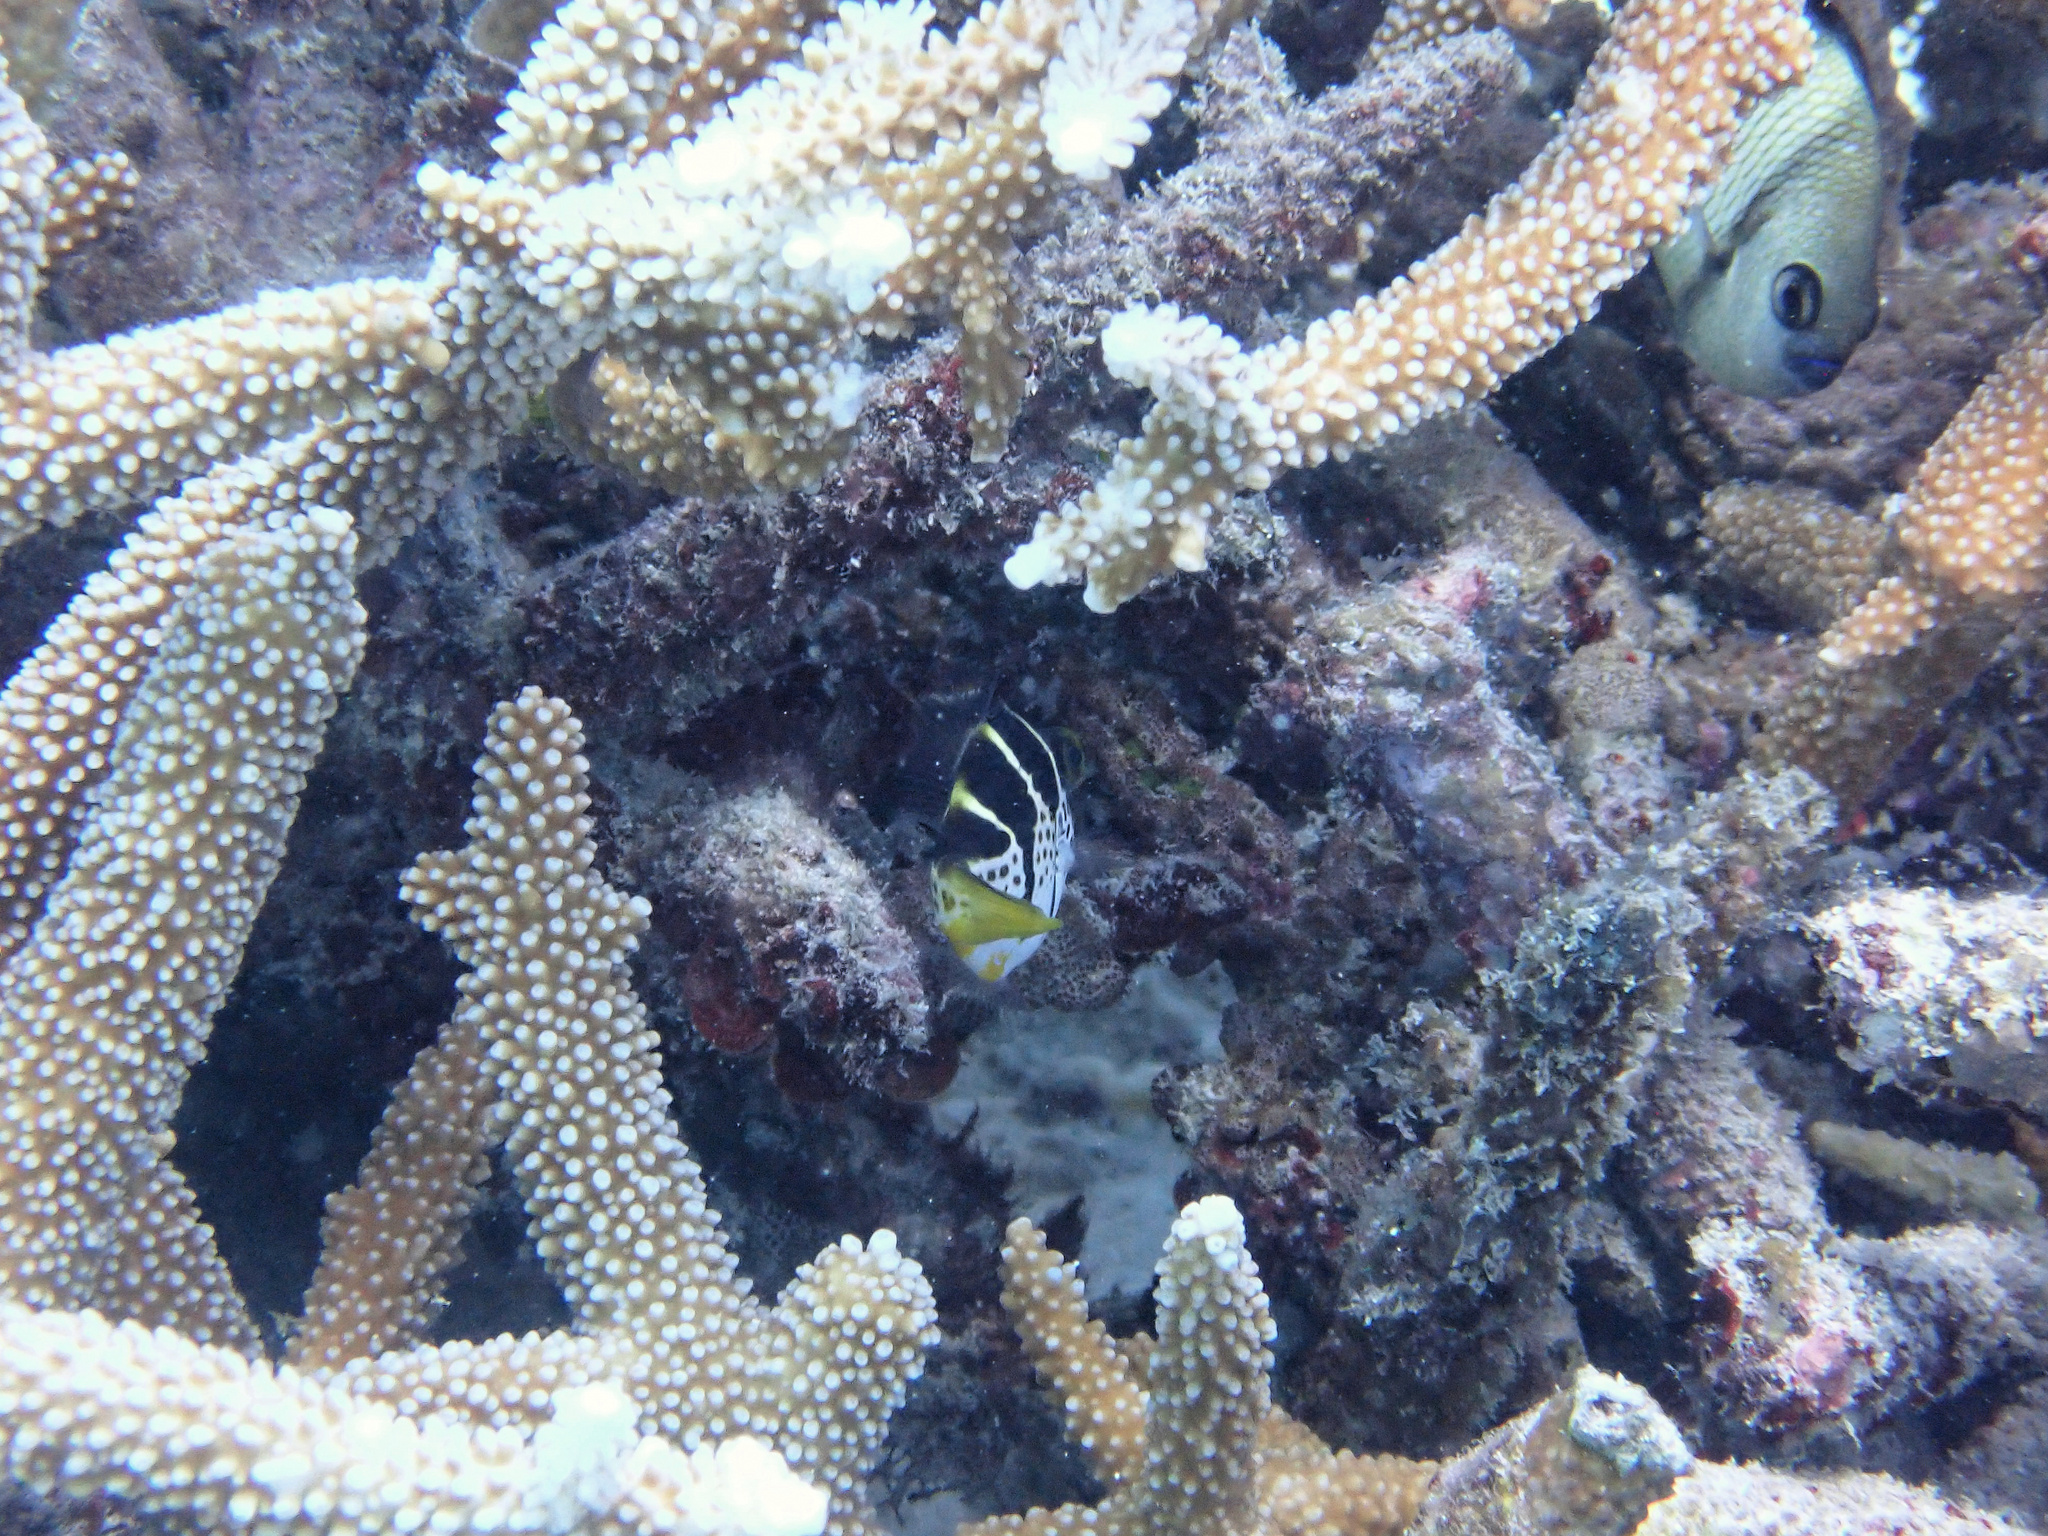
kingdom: Animalia
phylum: Chordata
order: Tetraodontiformes
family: Monacanthidae
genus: Paraluteres
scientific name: Paraluteres prionurus
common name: Black-saddled leatherjacket
